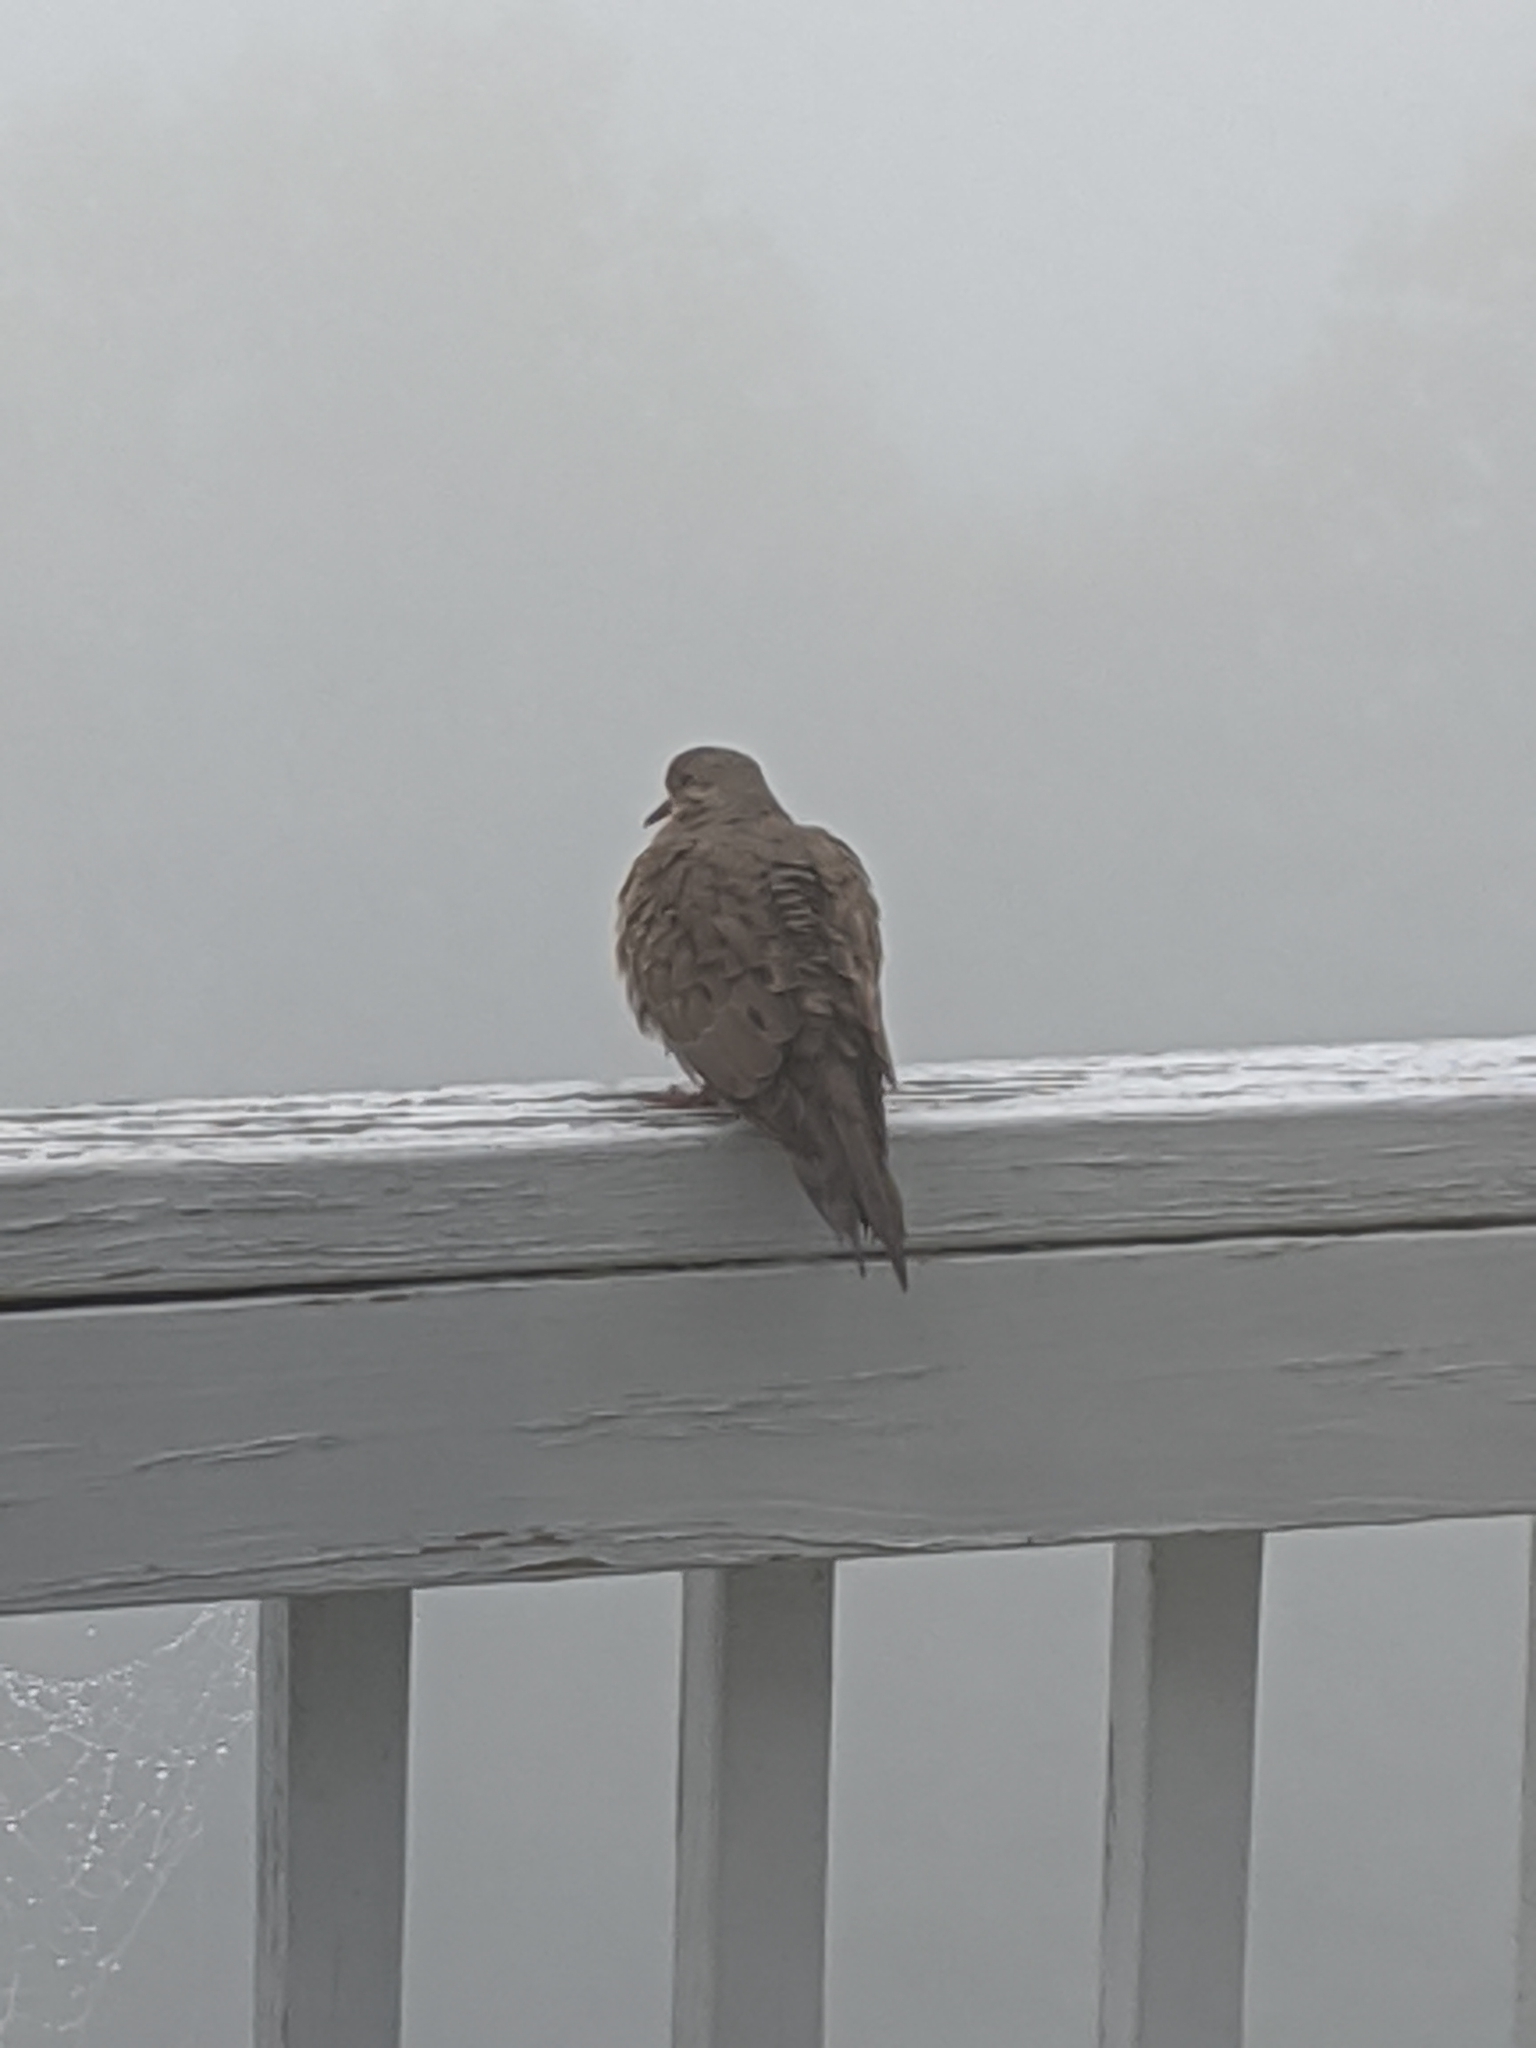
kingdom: Animalia
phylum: Chordata
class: Aves
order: Columbiformes
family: Columbidae
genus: Zenaida
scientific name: Zenaida macroura
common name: Mourning dove
